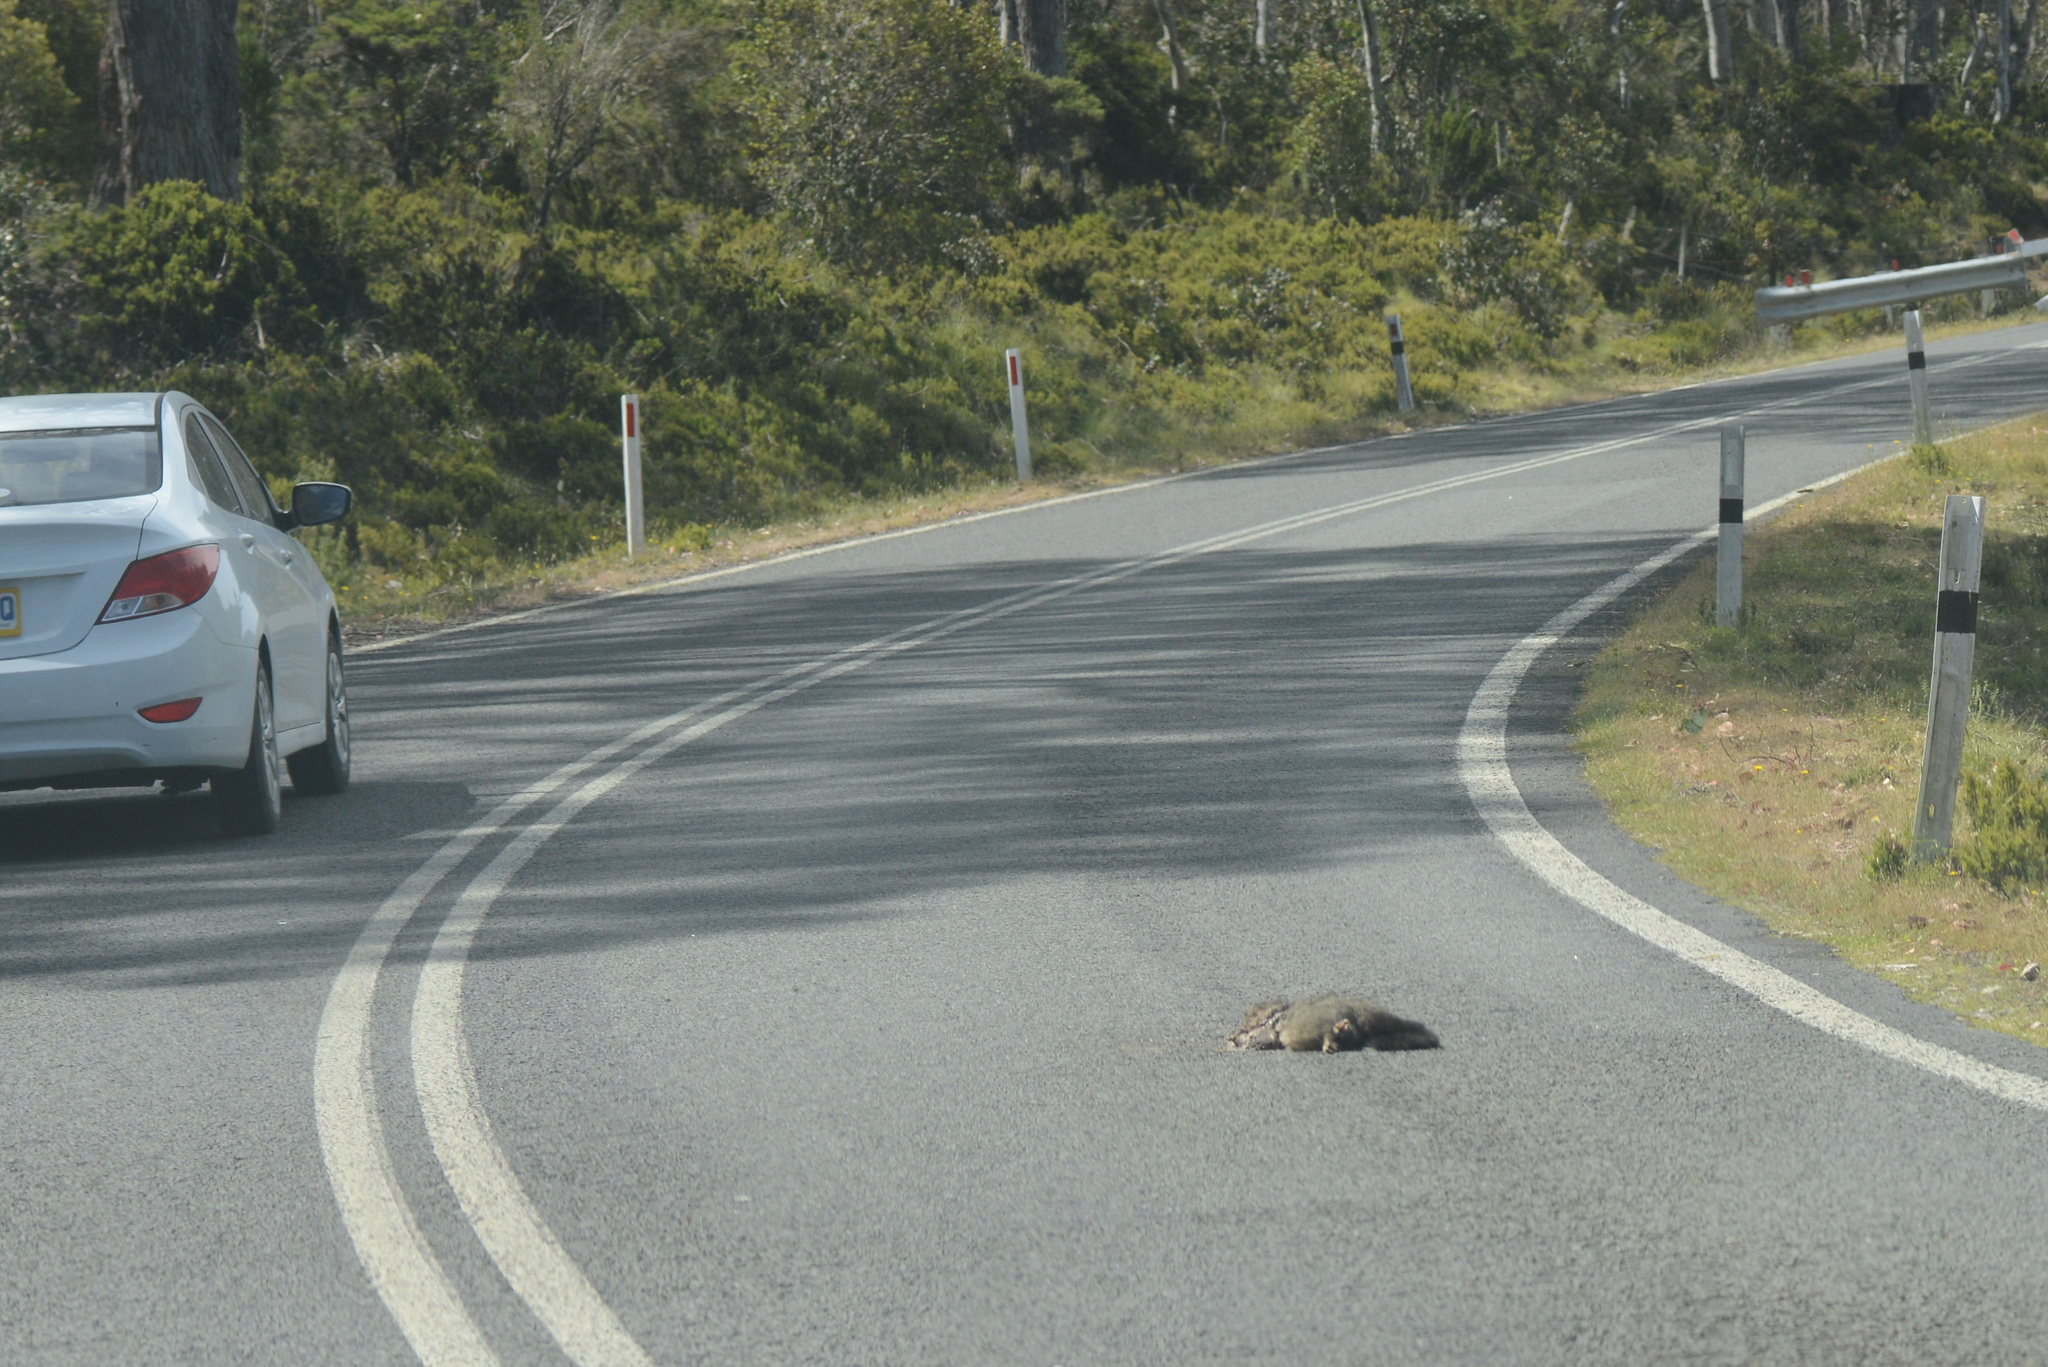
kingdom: Animalia
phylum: Chordata
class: Mammalia
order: Diprotodontia
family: Phalangeridae
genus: Trichosurus
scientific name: Trichosurus vulpecula
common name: Common brushtail
